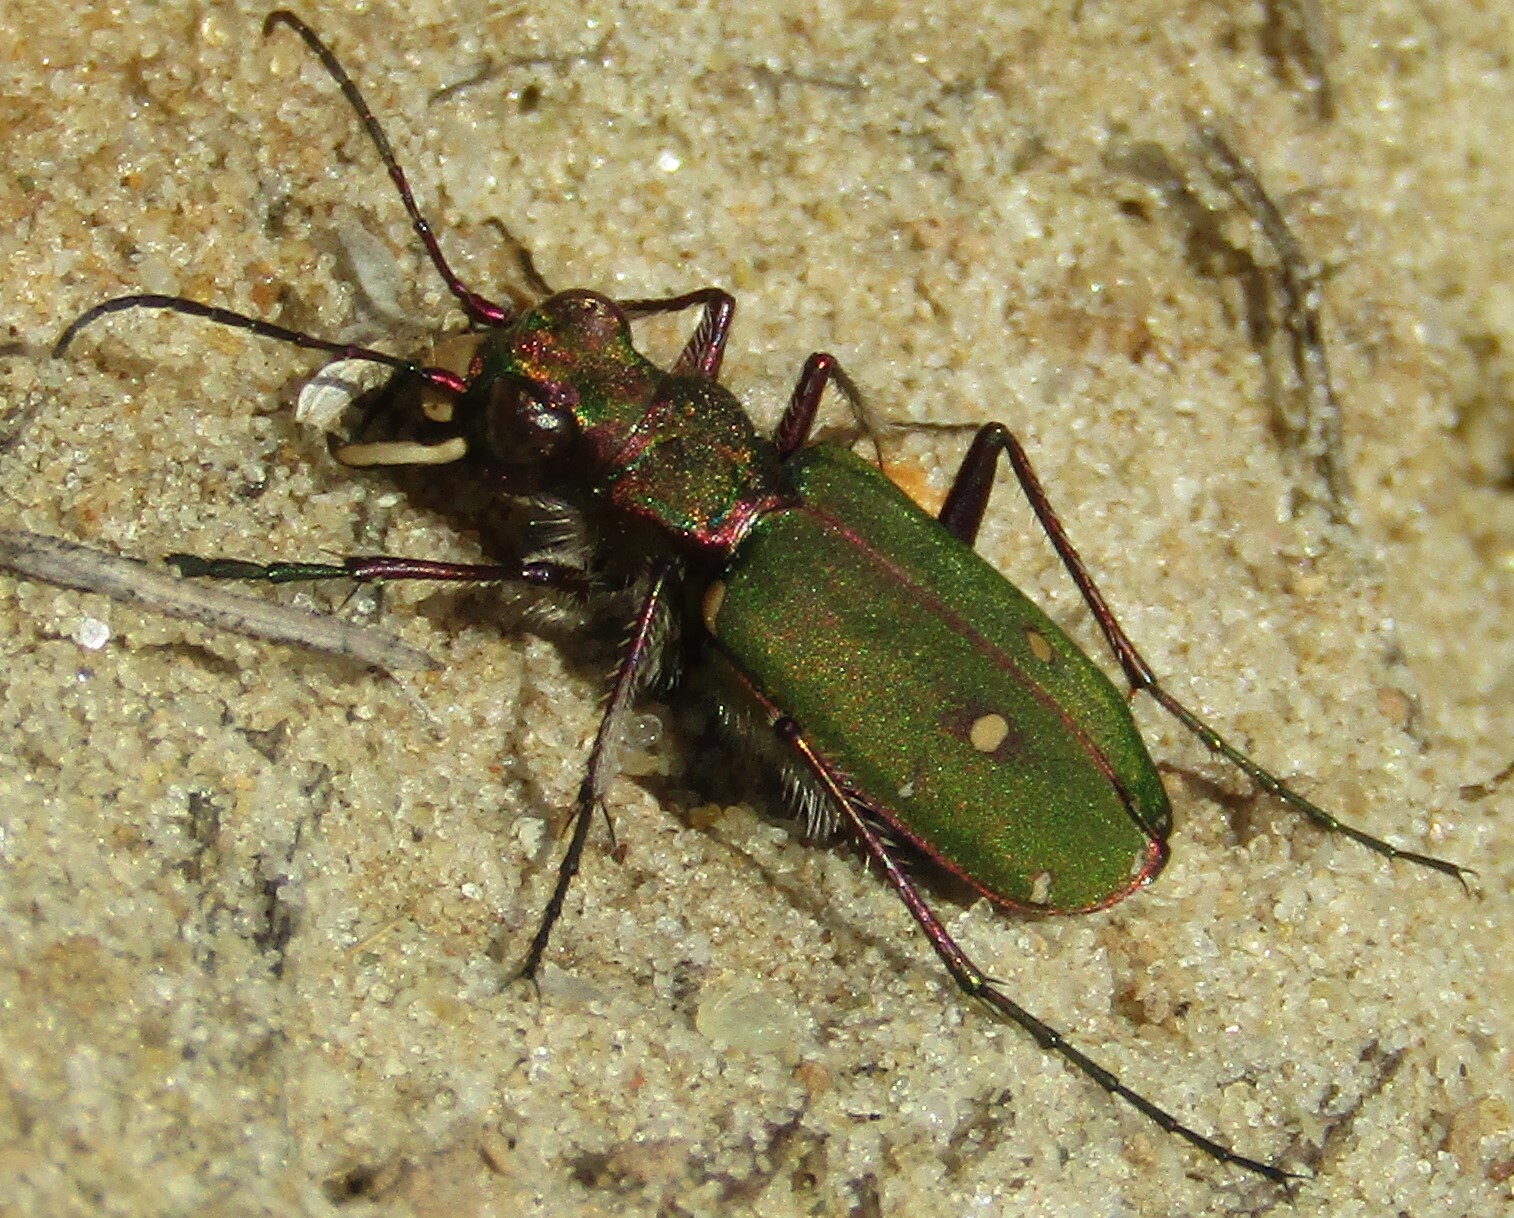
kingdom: Animalia
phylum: Arthropoda
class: Insecta
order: Coleoptera
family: Carabidae
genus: Cicindela
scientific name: Cicindela campestris
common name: Common tiger beetle
